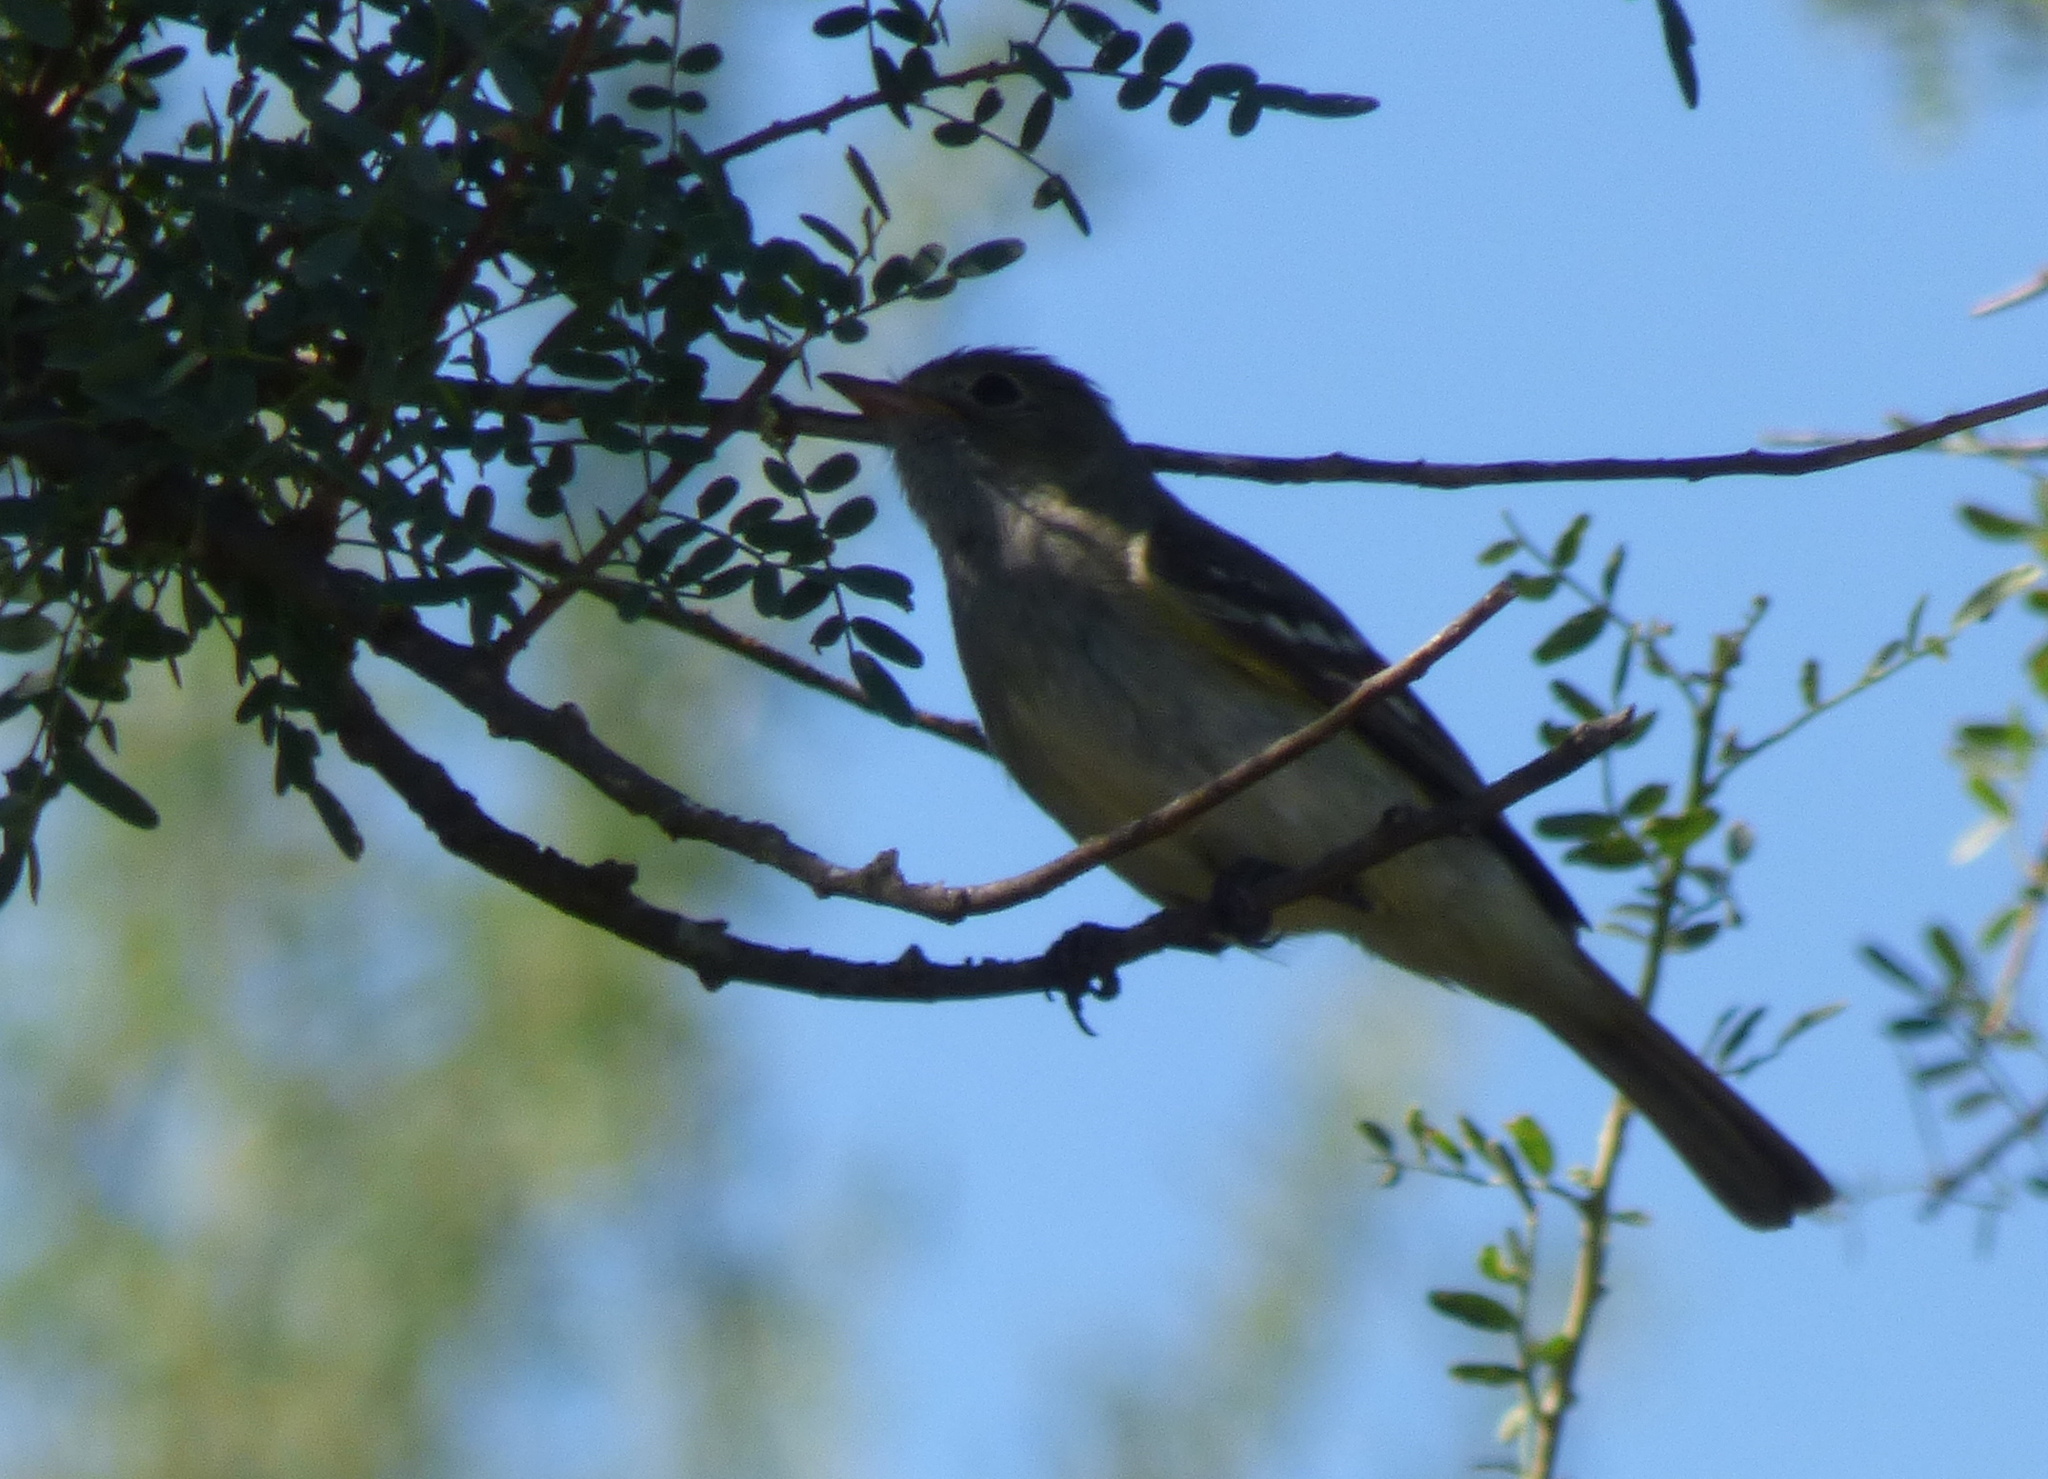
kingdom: Animalia
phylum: Chordata
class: Aves
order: Passeriformes
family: Tyrannidae
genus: Elaenia
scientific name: Elaenia parvirostris
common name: Small-billed elaenia
